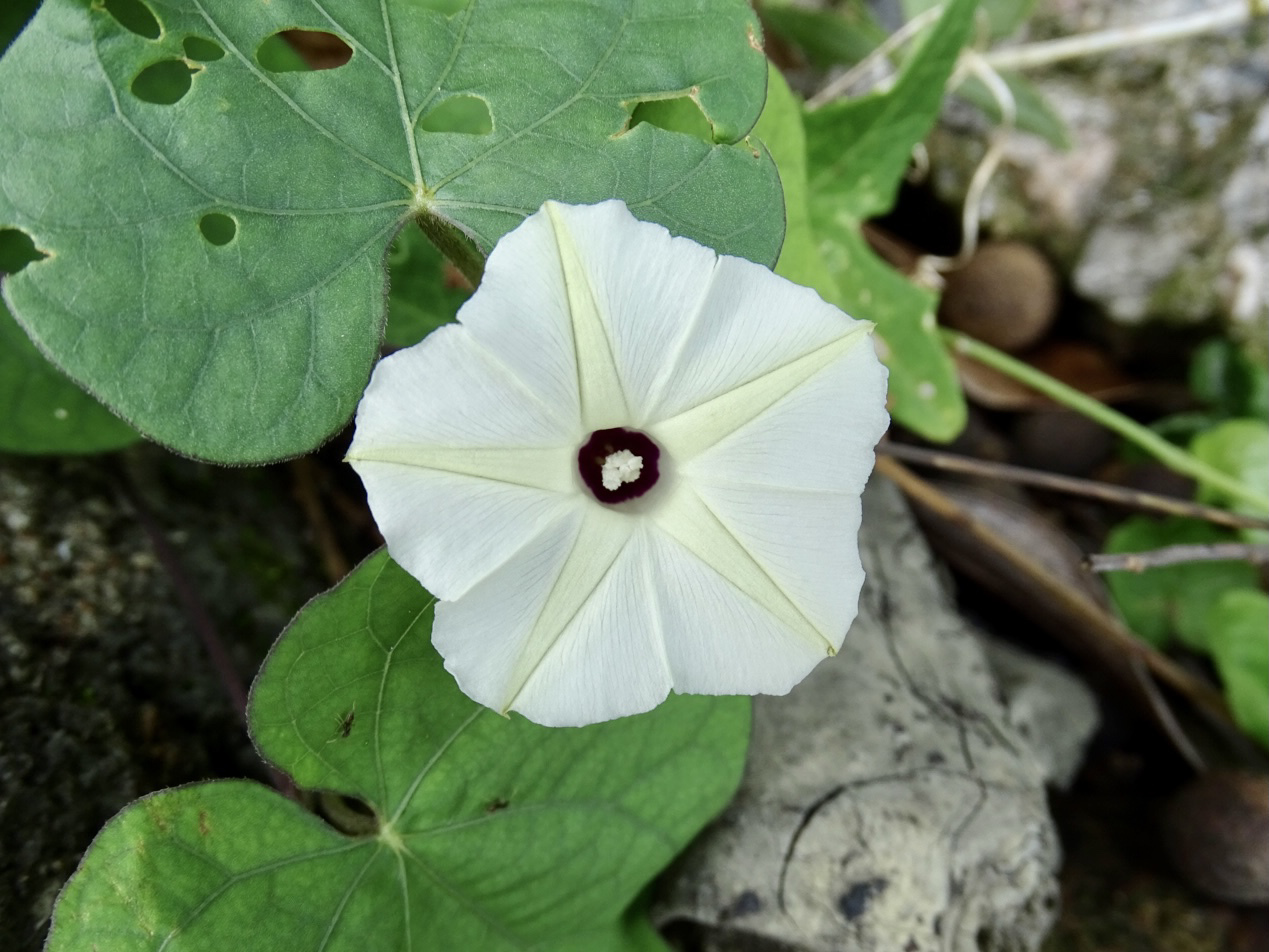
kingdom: Plantae
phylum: Tracheophyta
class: Magnoliopsida
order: Solanales
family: Convolvulaceae
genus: Ipomoea
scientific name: Ipomoea obscura
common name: Obscure morning-glory
